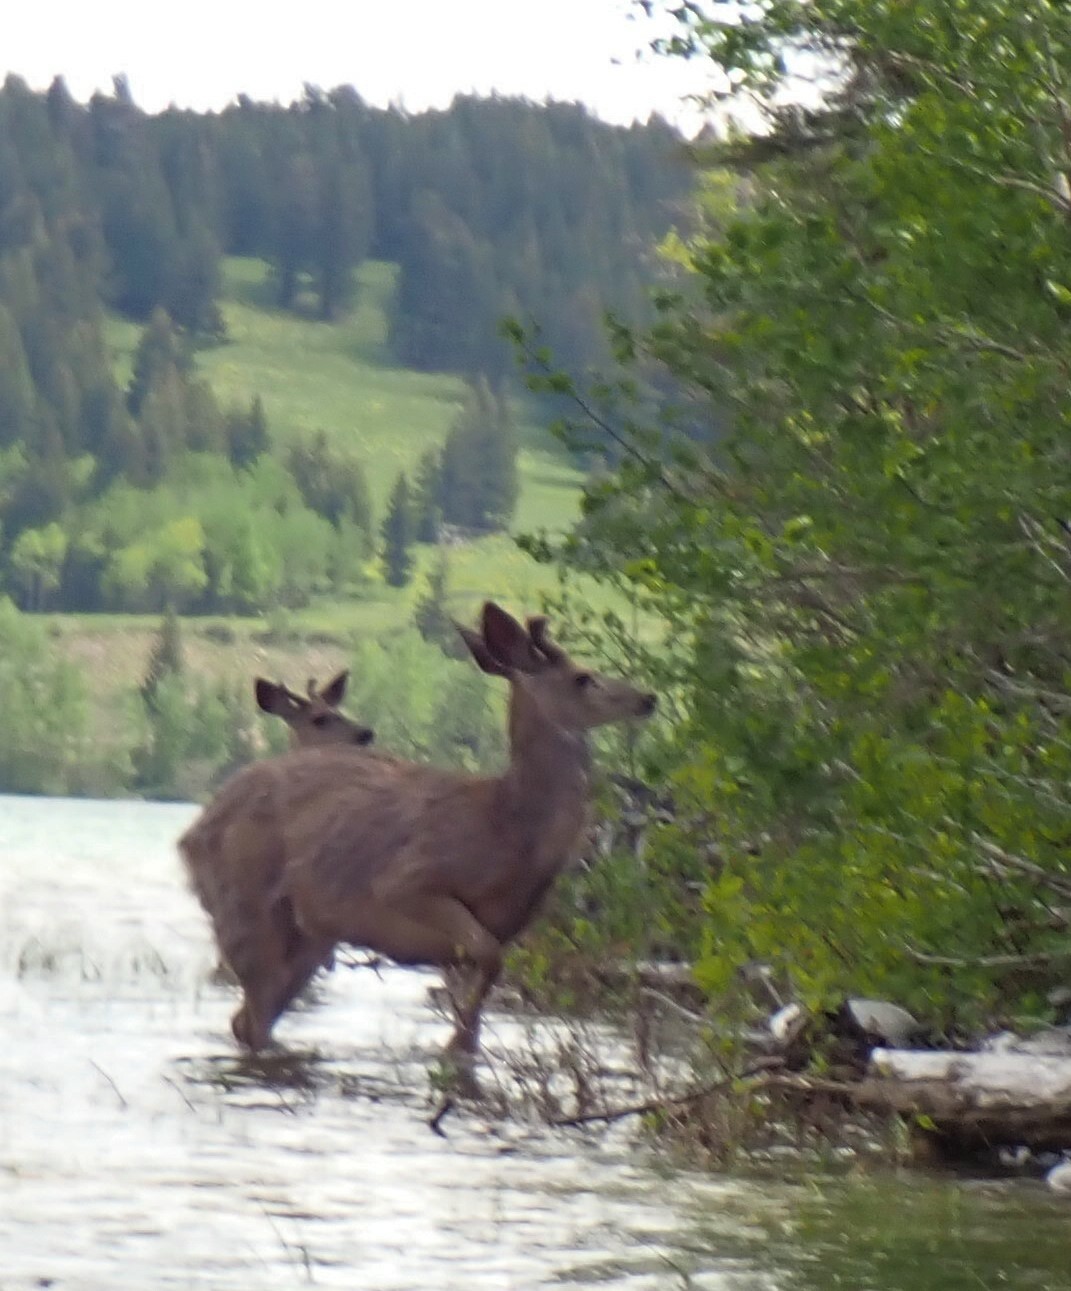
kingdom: Animalia
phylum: Chordata
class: Mammalia
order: Artiodactyla
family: Cervidae
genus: Odocoileus
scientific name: Odocoileus hemionus
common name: Mule deer
